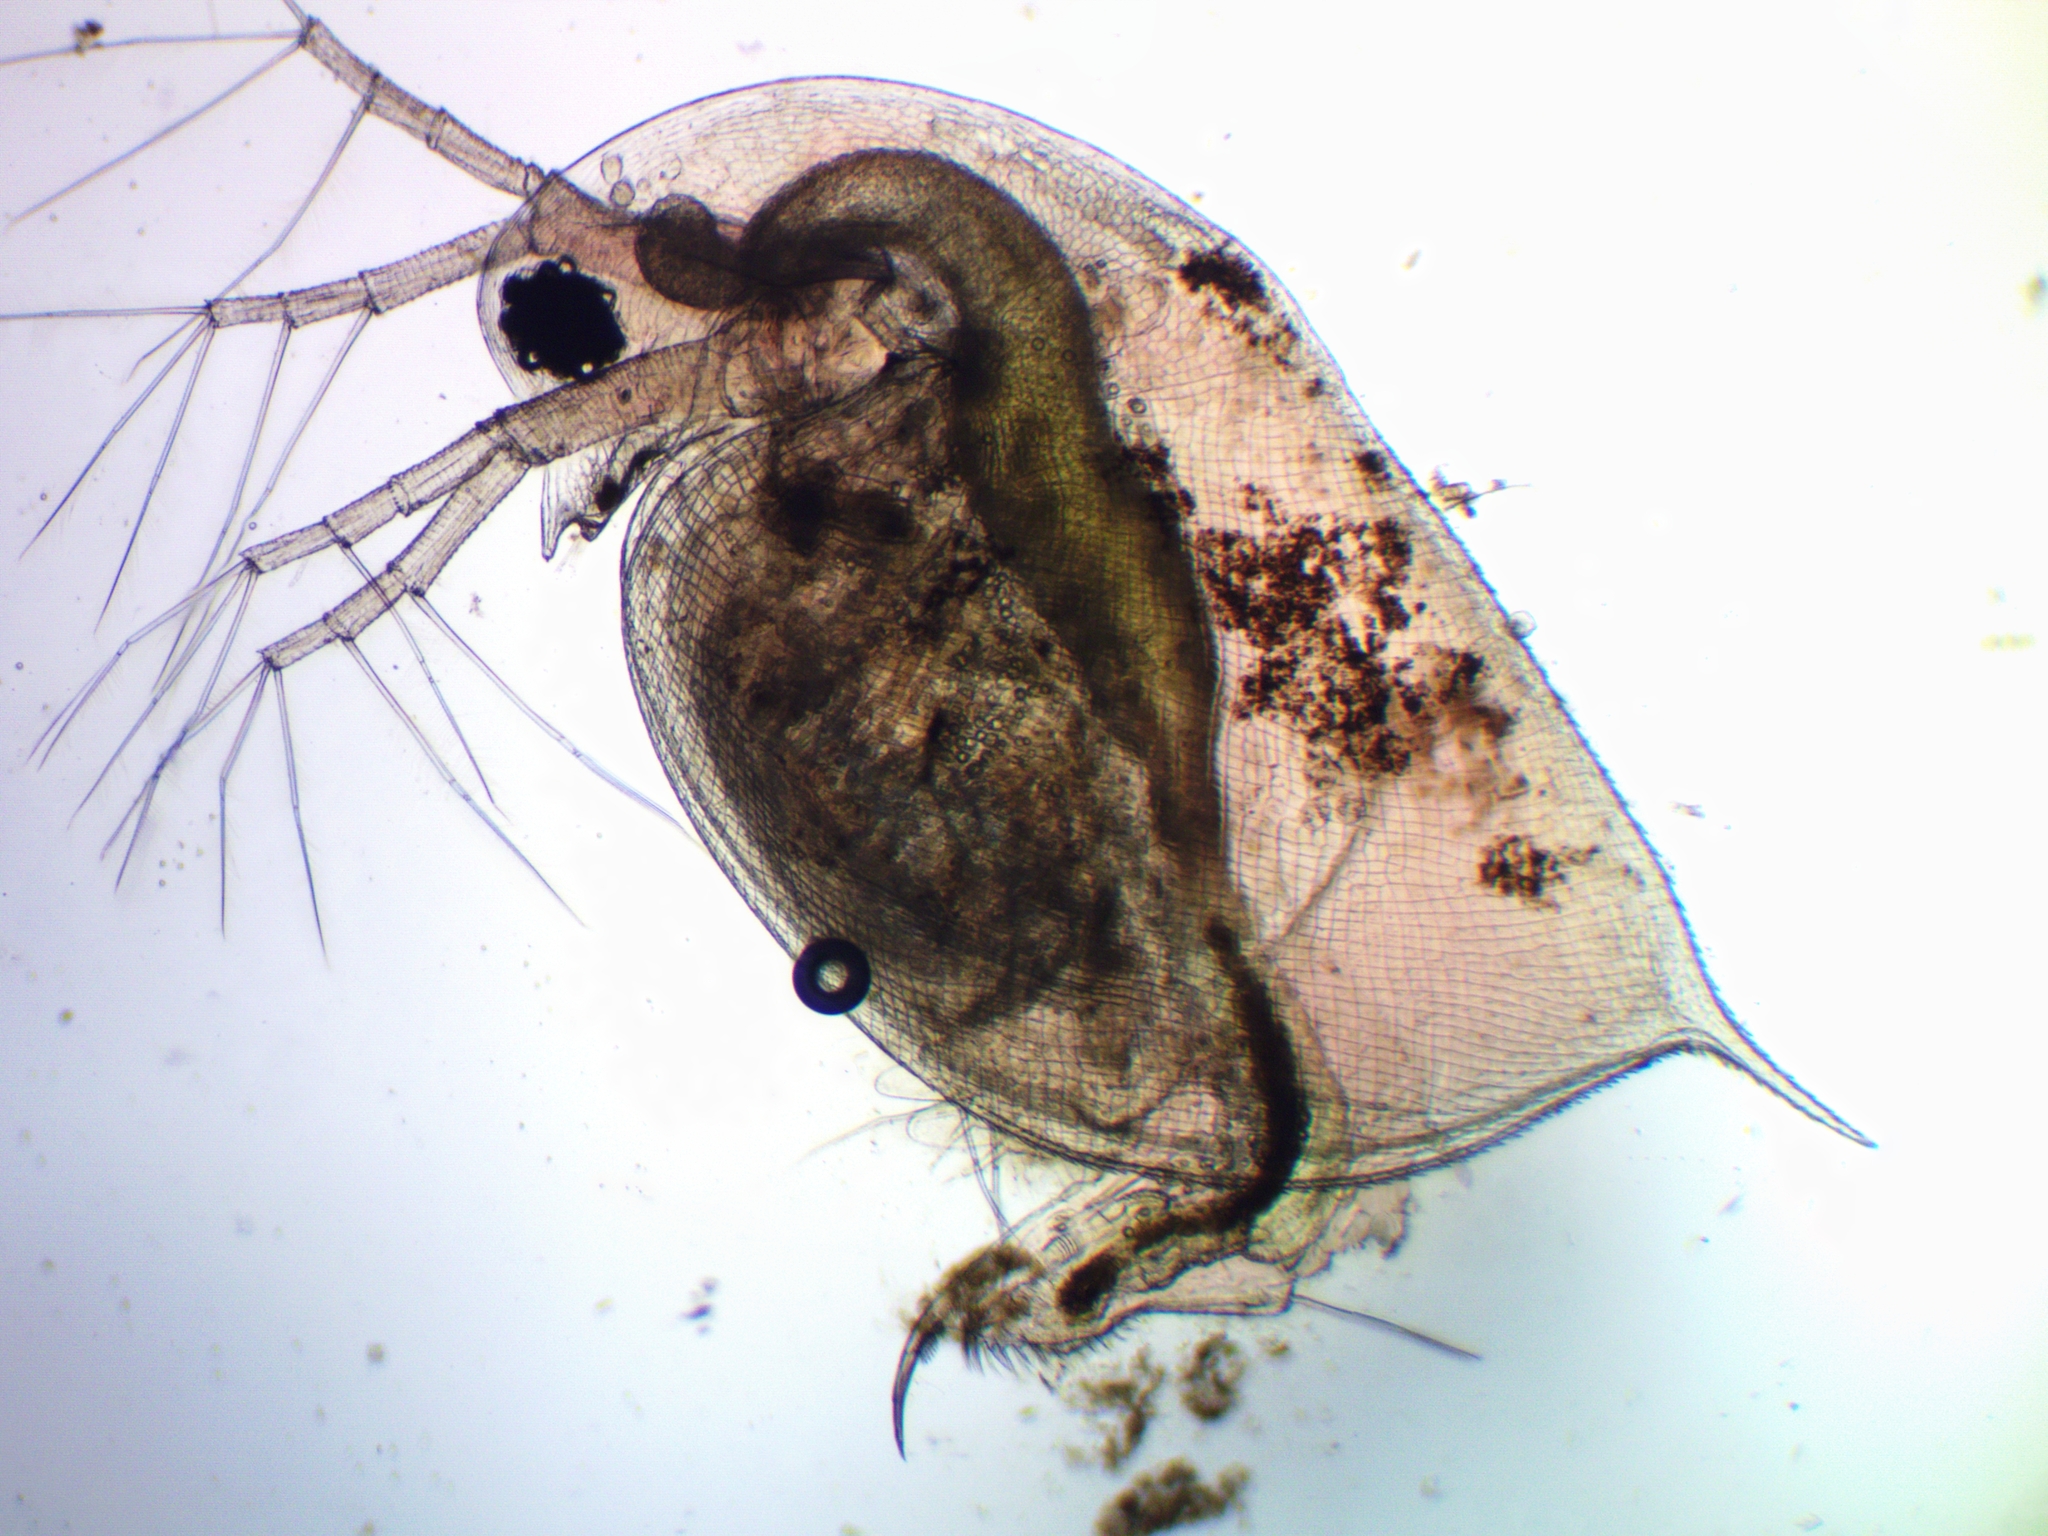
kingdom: Animalia
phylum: Arthropoda
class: Branchiopoda
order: Diplostraca
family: Daphniidae
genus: Daphnia
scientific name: Daphnia pulex
